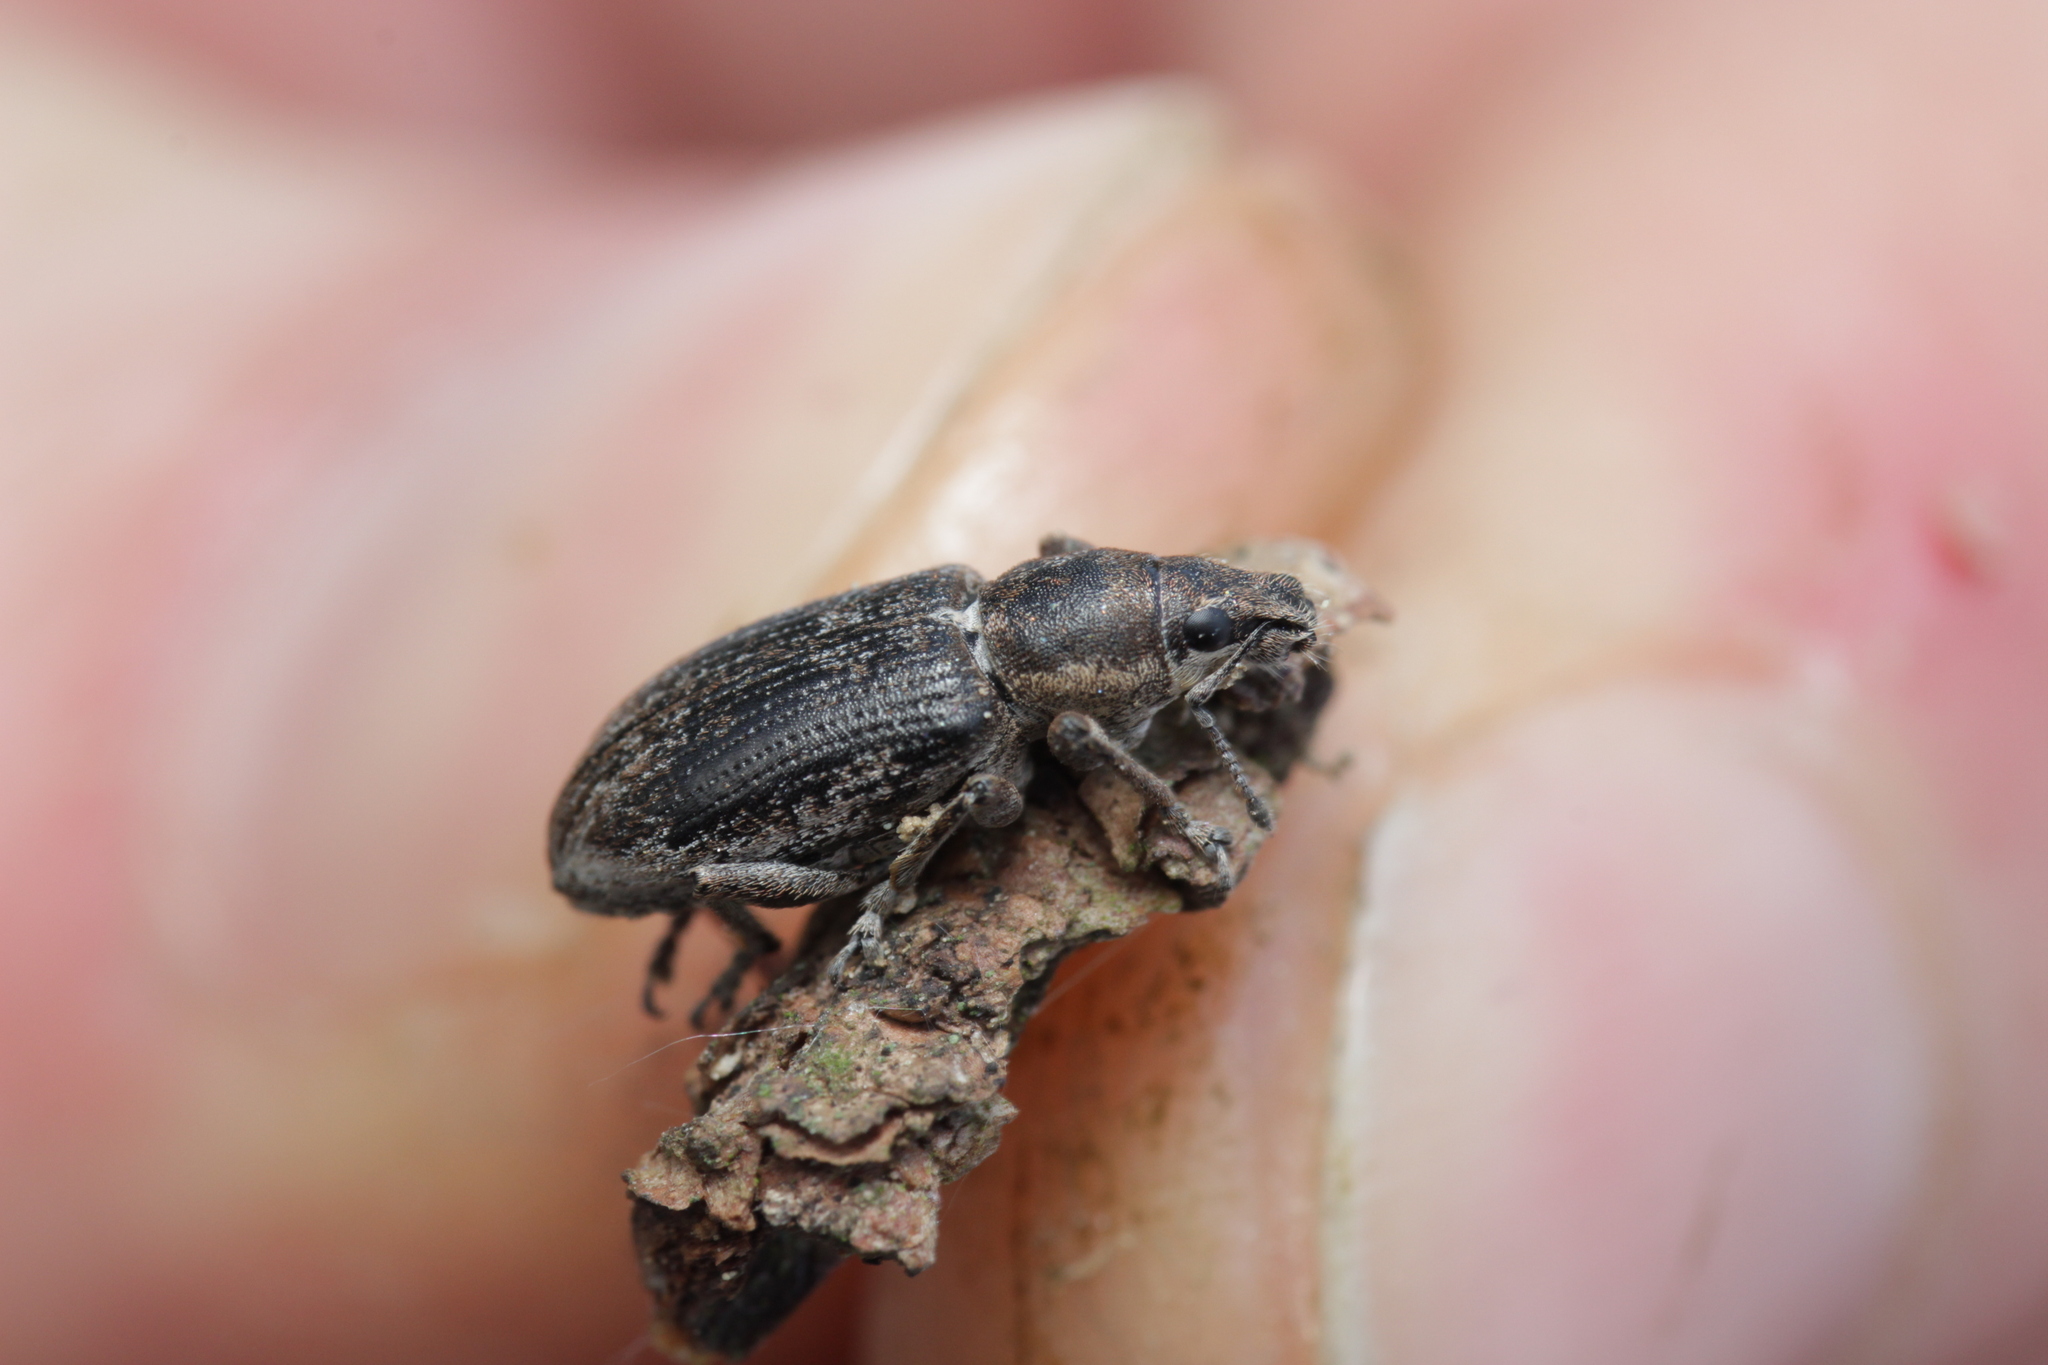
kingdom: Animalia
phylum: Arthropoda
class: Insecta
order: Coleoptera
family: Curculionidae
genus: Tanymecus
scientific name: Tanymecus palliatus
